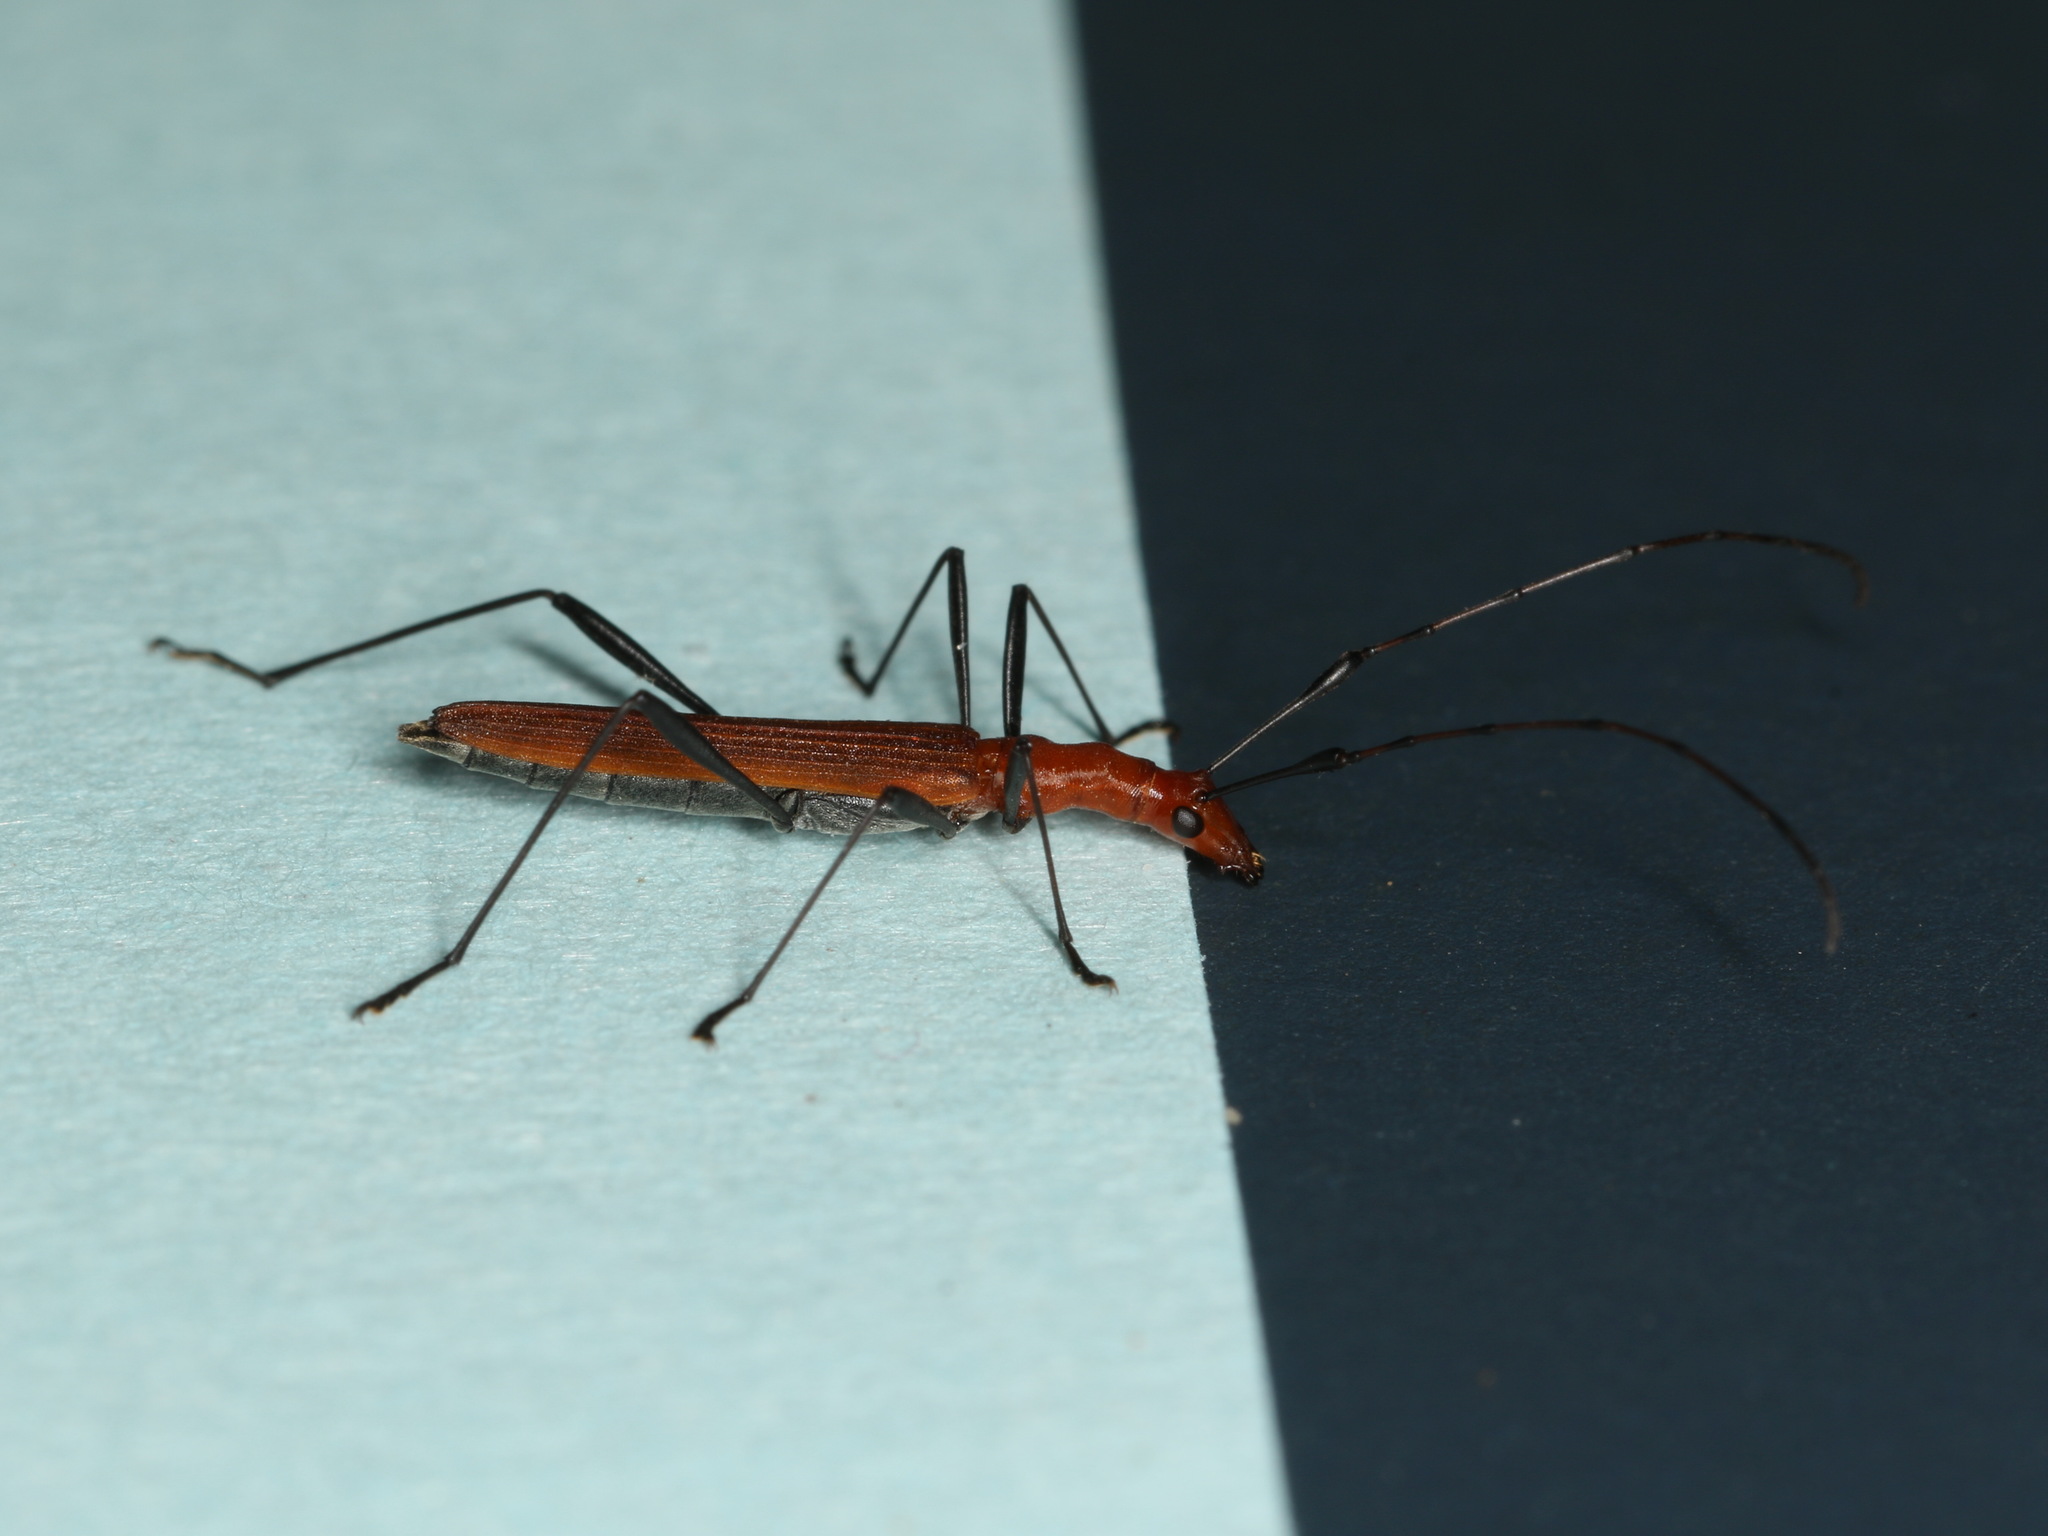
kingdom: Animalia
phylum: Arthropoda
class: Insecta
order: Coleoptera
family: Cerambycidae
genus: Psilomorpha
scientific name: Psilomorpha tenuipes
